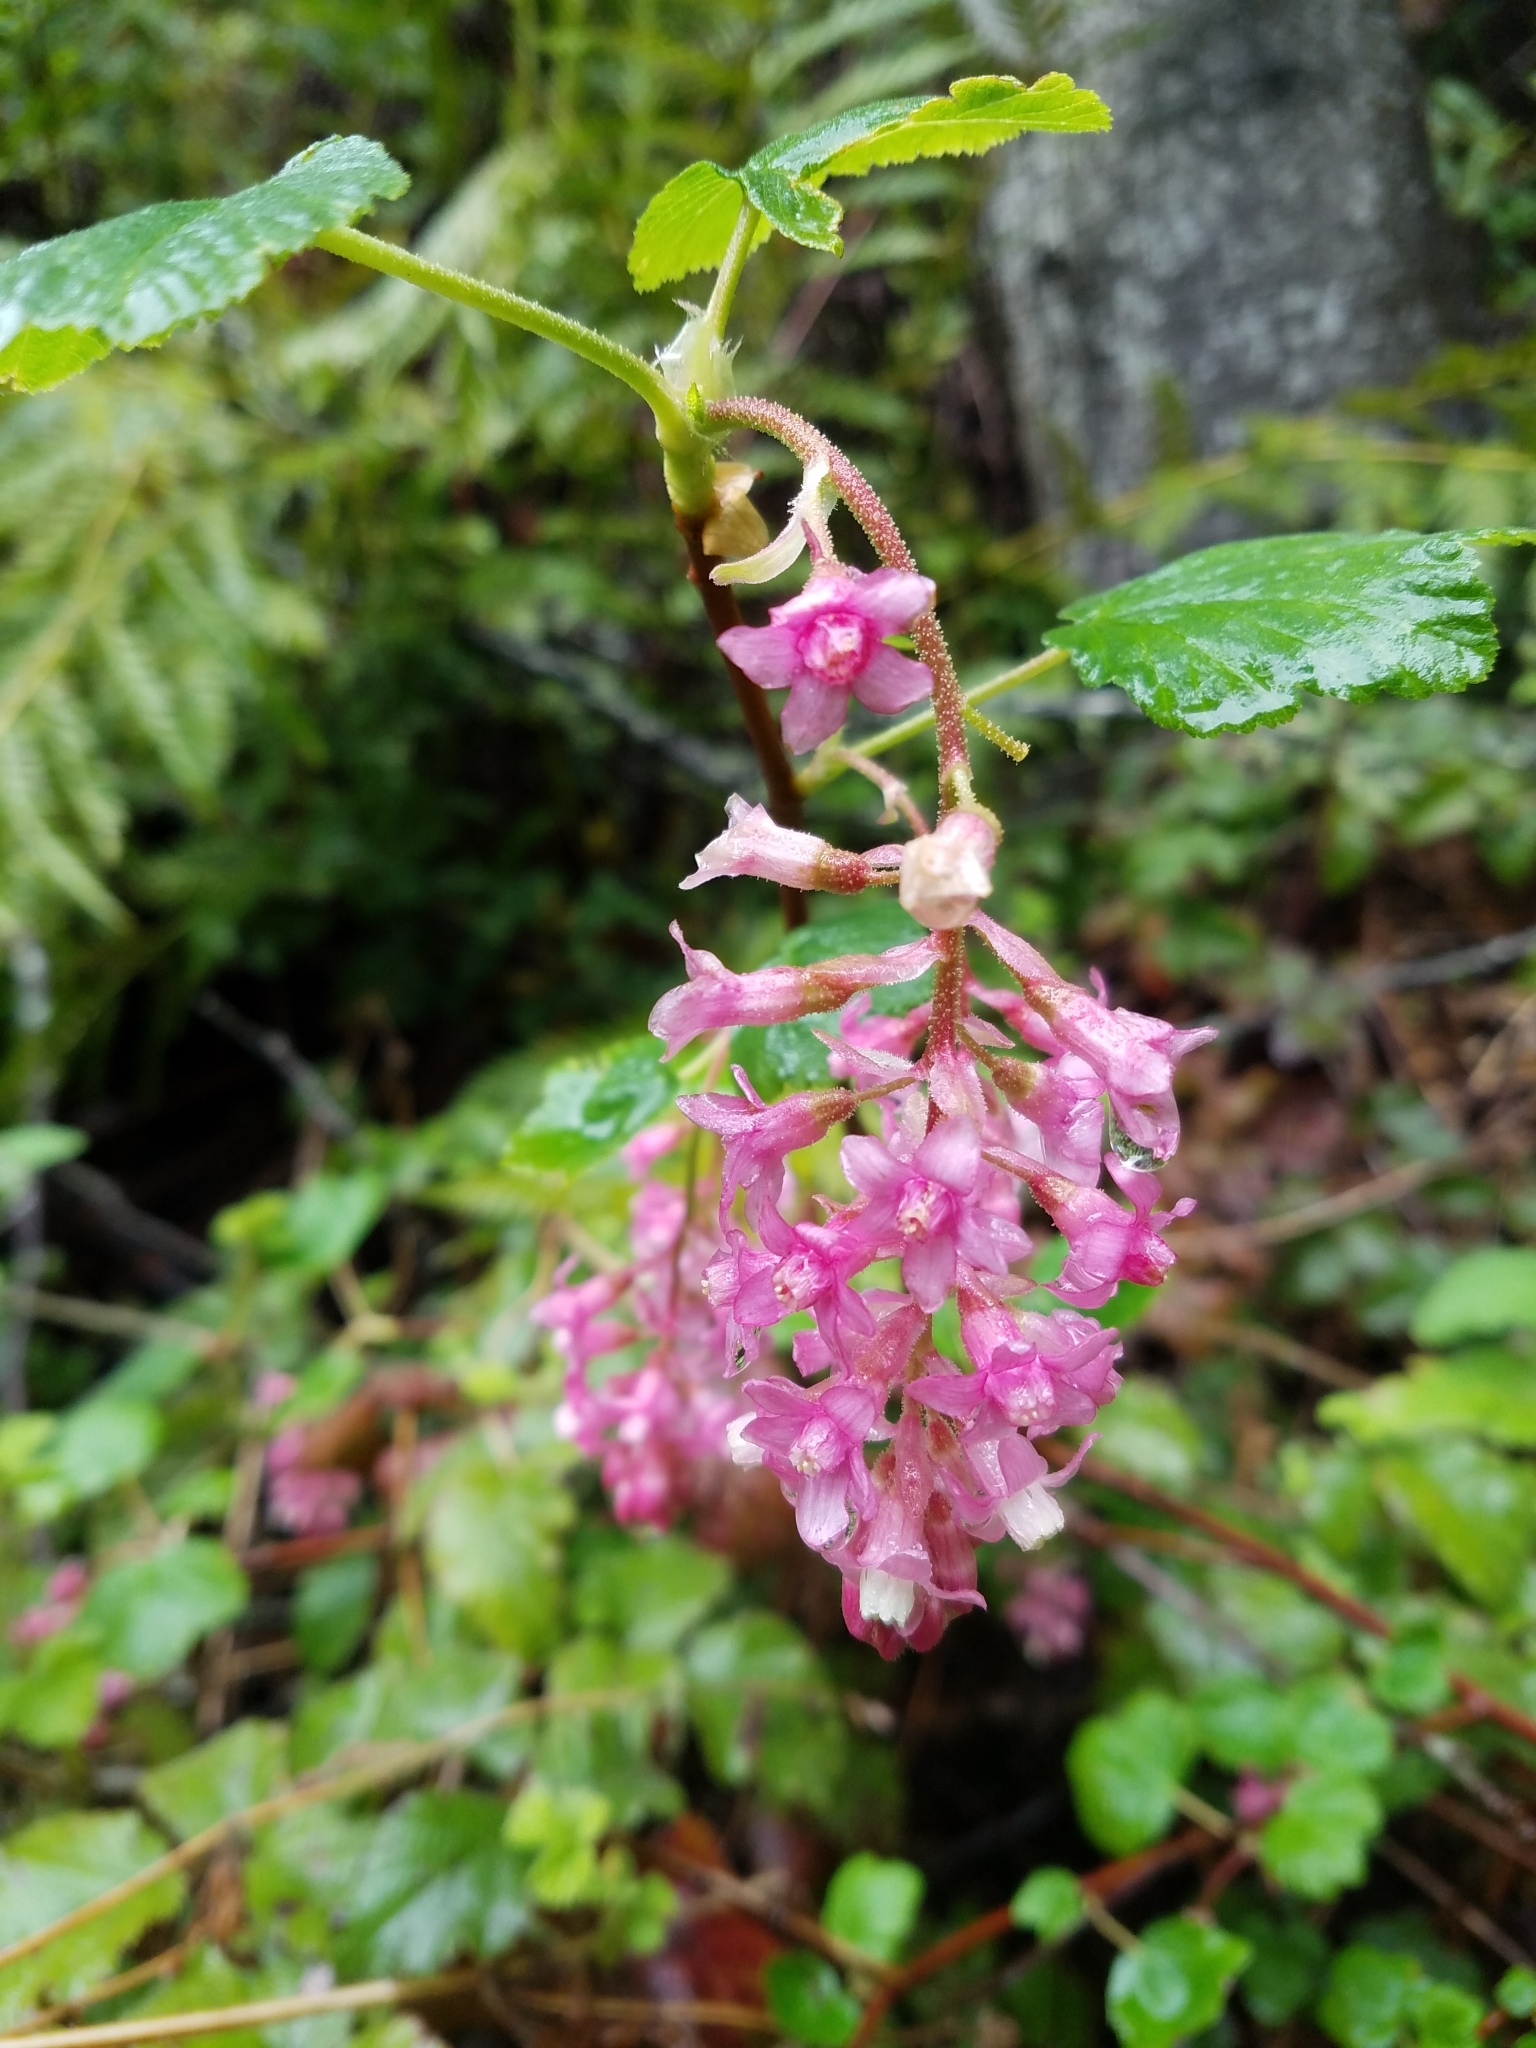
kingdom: Plantae
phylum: Tracheophyta
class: Magnoliopsida
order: Saxifragales
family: Grossulariaceae
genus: Ribes
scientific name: Ribes sanguineum
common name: Flowering currant
